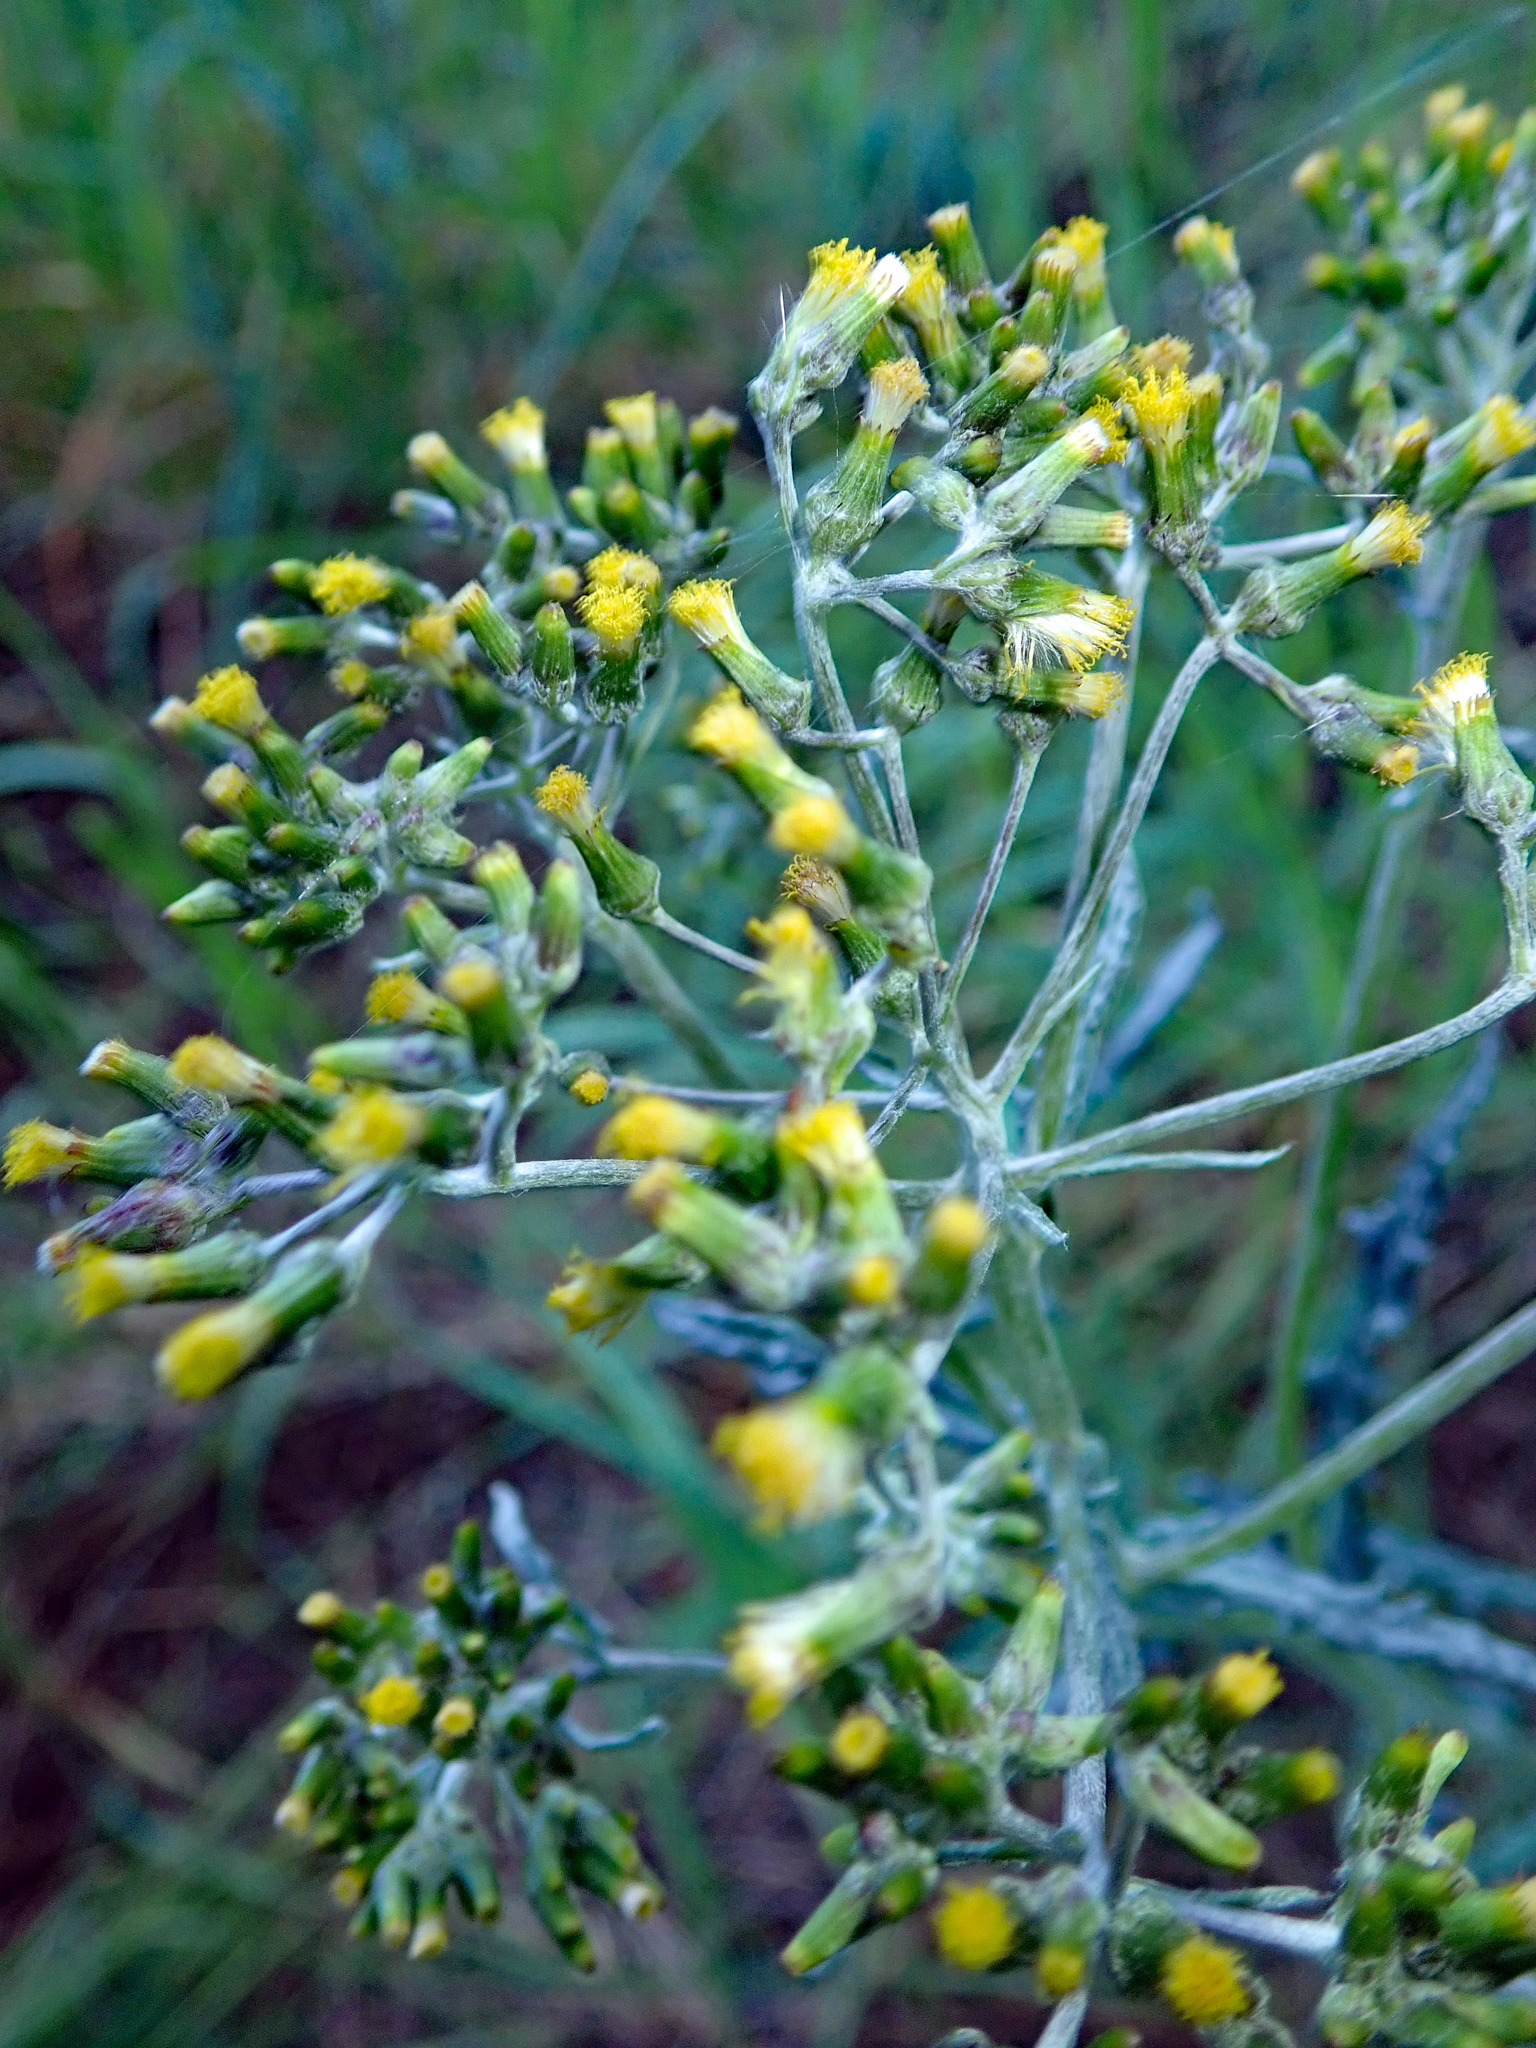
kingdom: Plantae
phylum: Tracheophyta
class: Magnoliopsida
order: Asterales
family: Asteraceae
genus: Senecio
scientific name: Senecio glomeratus
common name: Cutleaf burnweed
